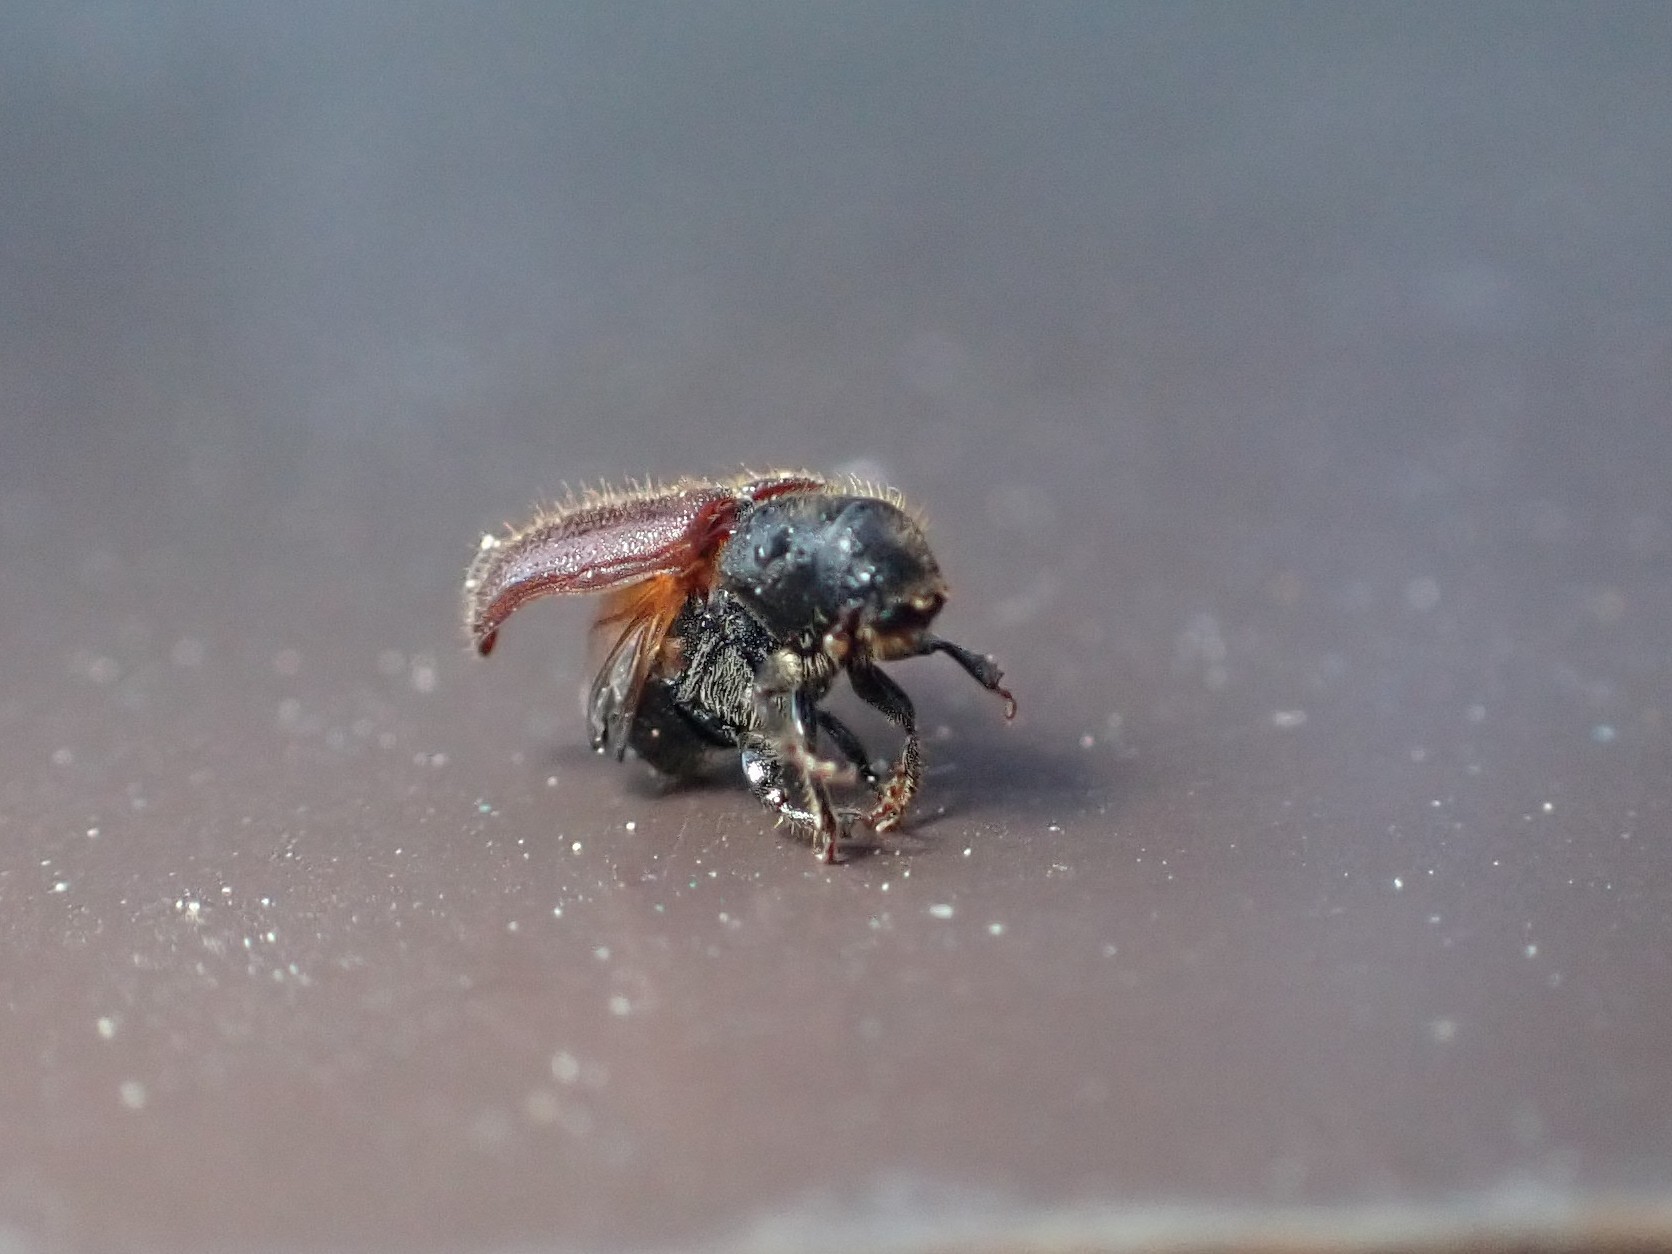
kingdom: Animalia
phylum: Arthropoda
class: Insecta
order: Coleoptera
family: Curculionidae
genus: Dendroctonus
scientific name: Dendroctonus rufipennis
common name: Spruce beetle
